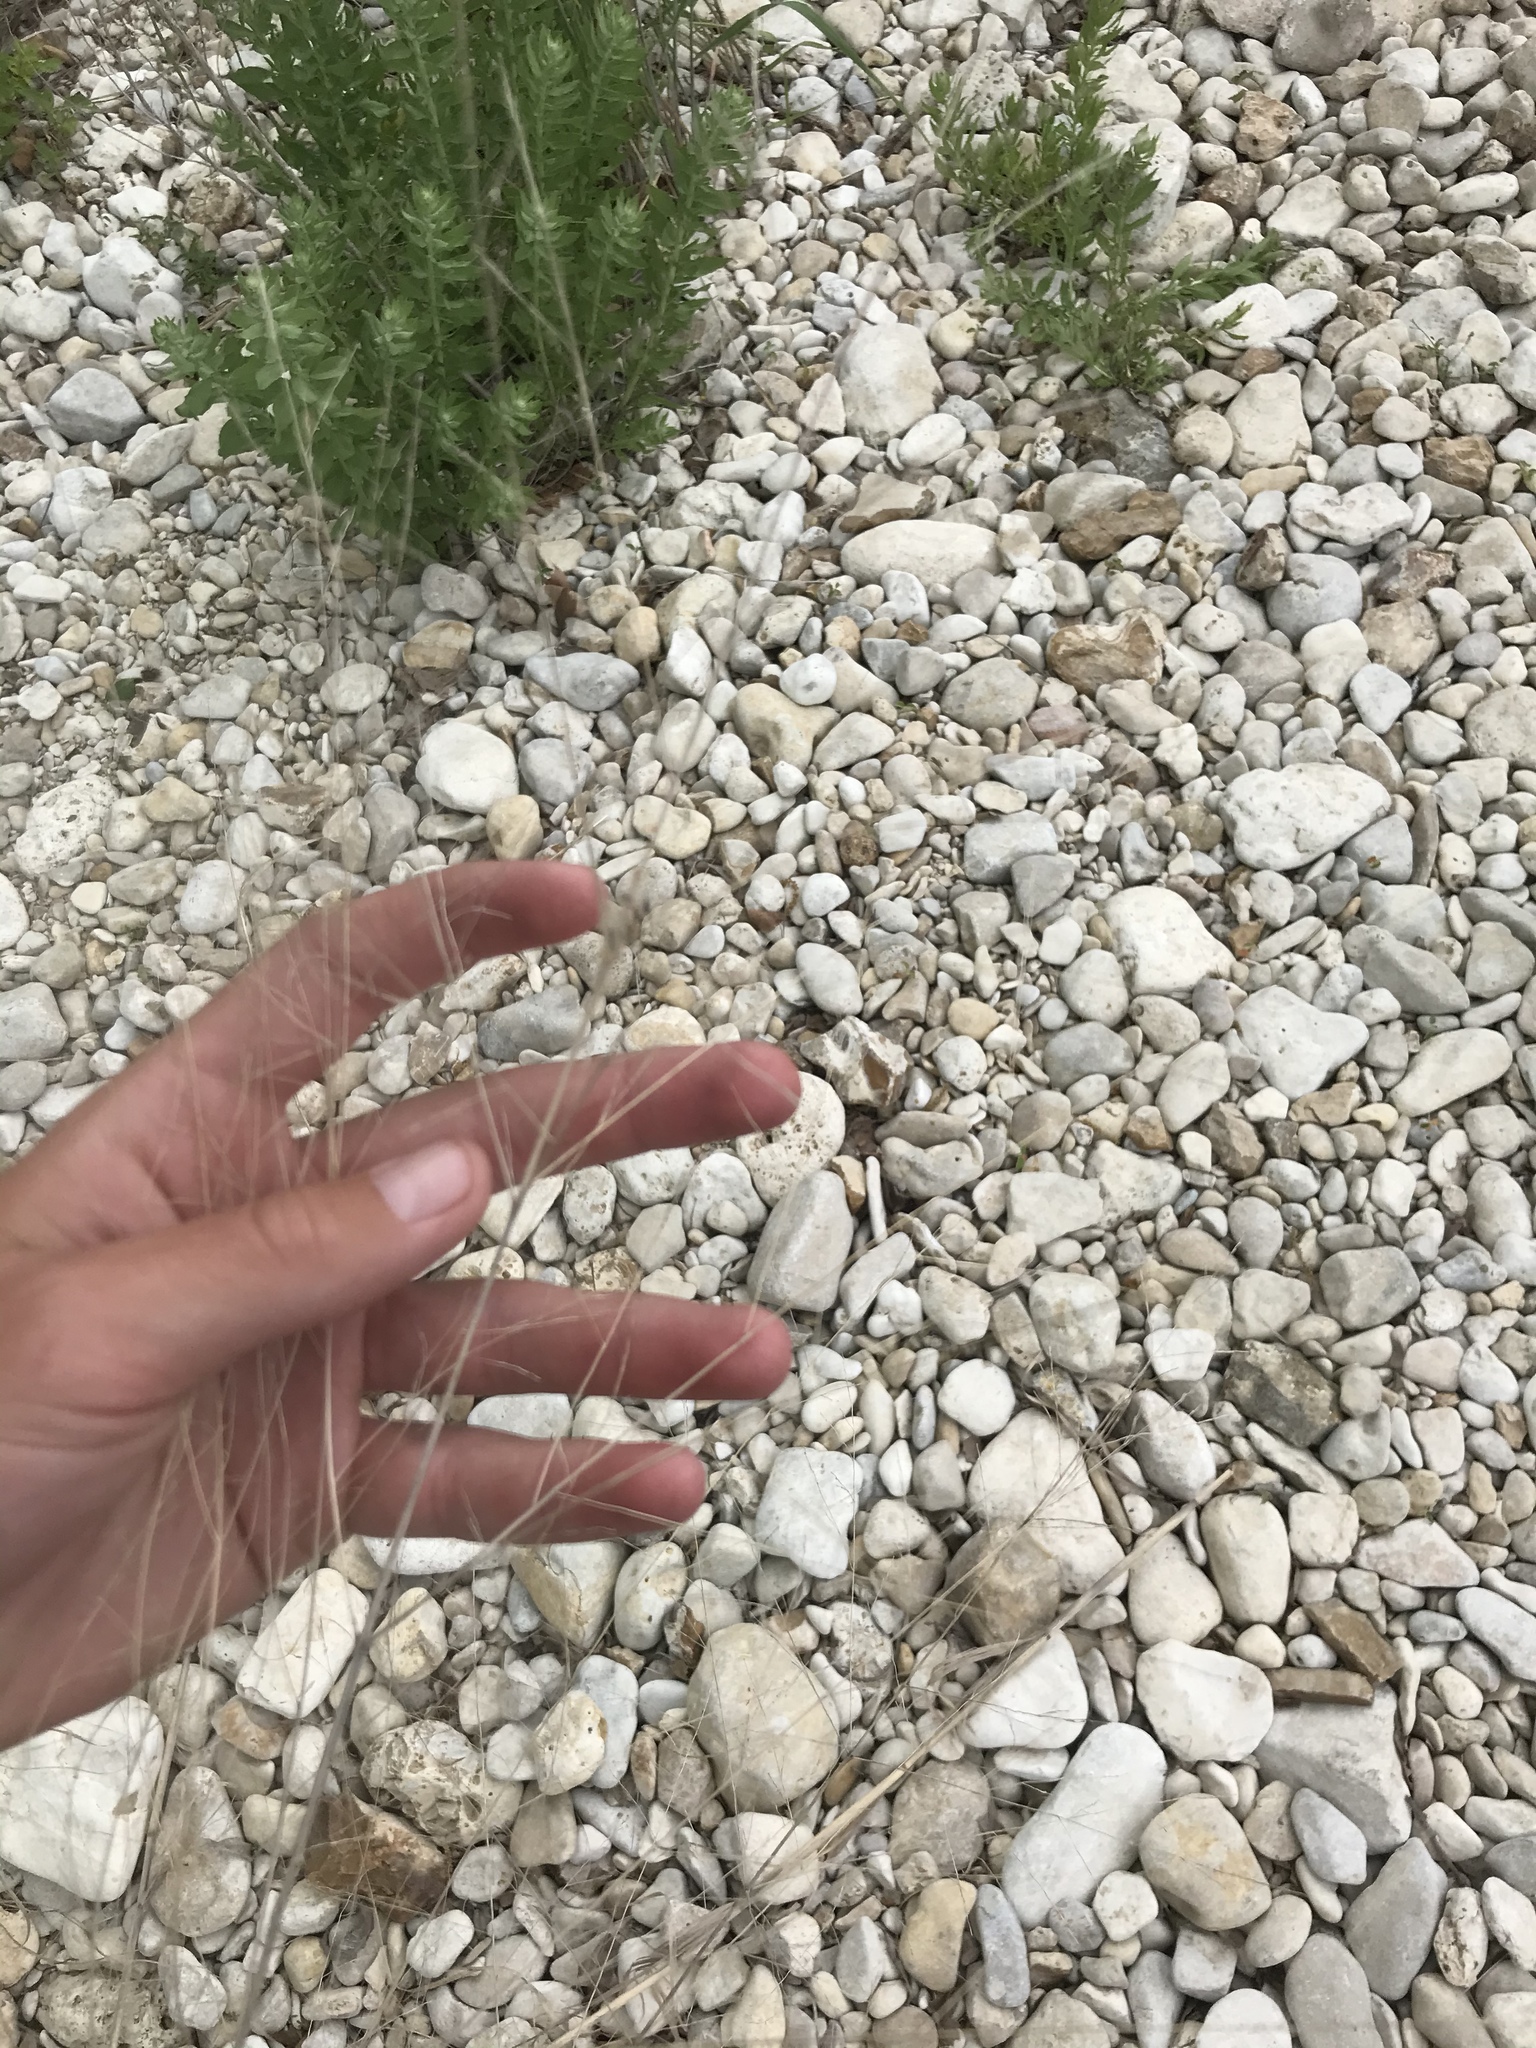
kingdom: Plantae
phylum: Tracheophyta
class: Liliopsida
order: Poales
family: Poaceae
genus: Panicum
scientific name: Panicum virgatum
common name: Switchgrass
